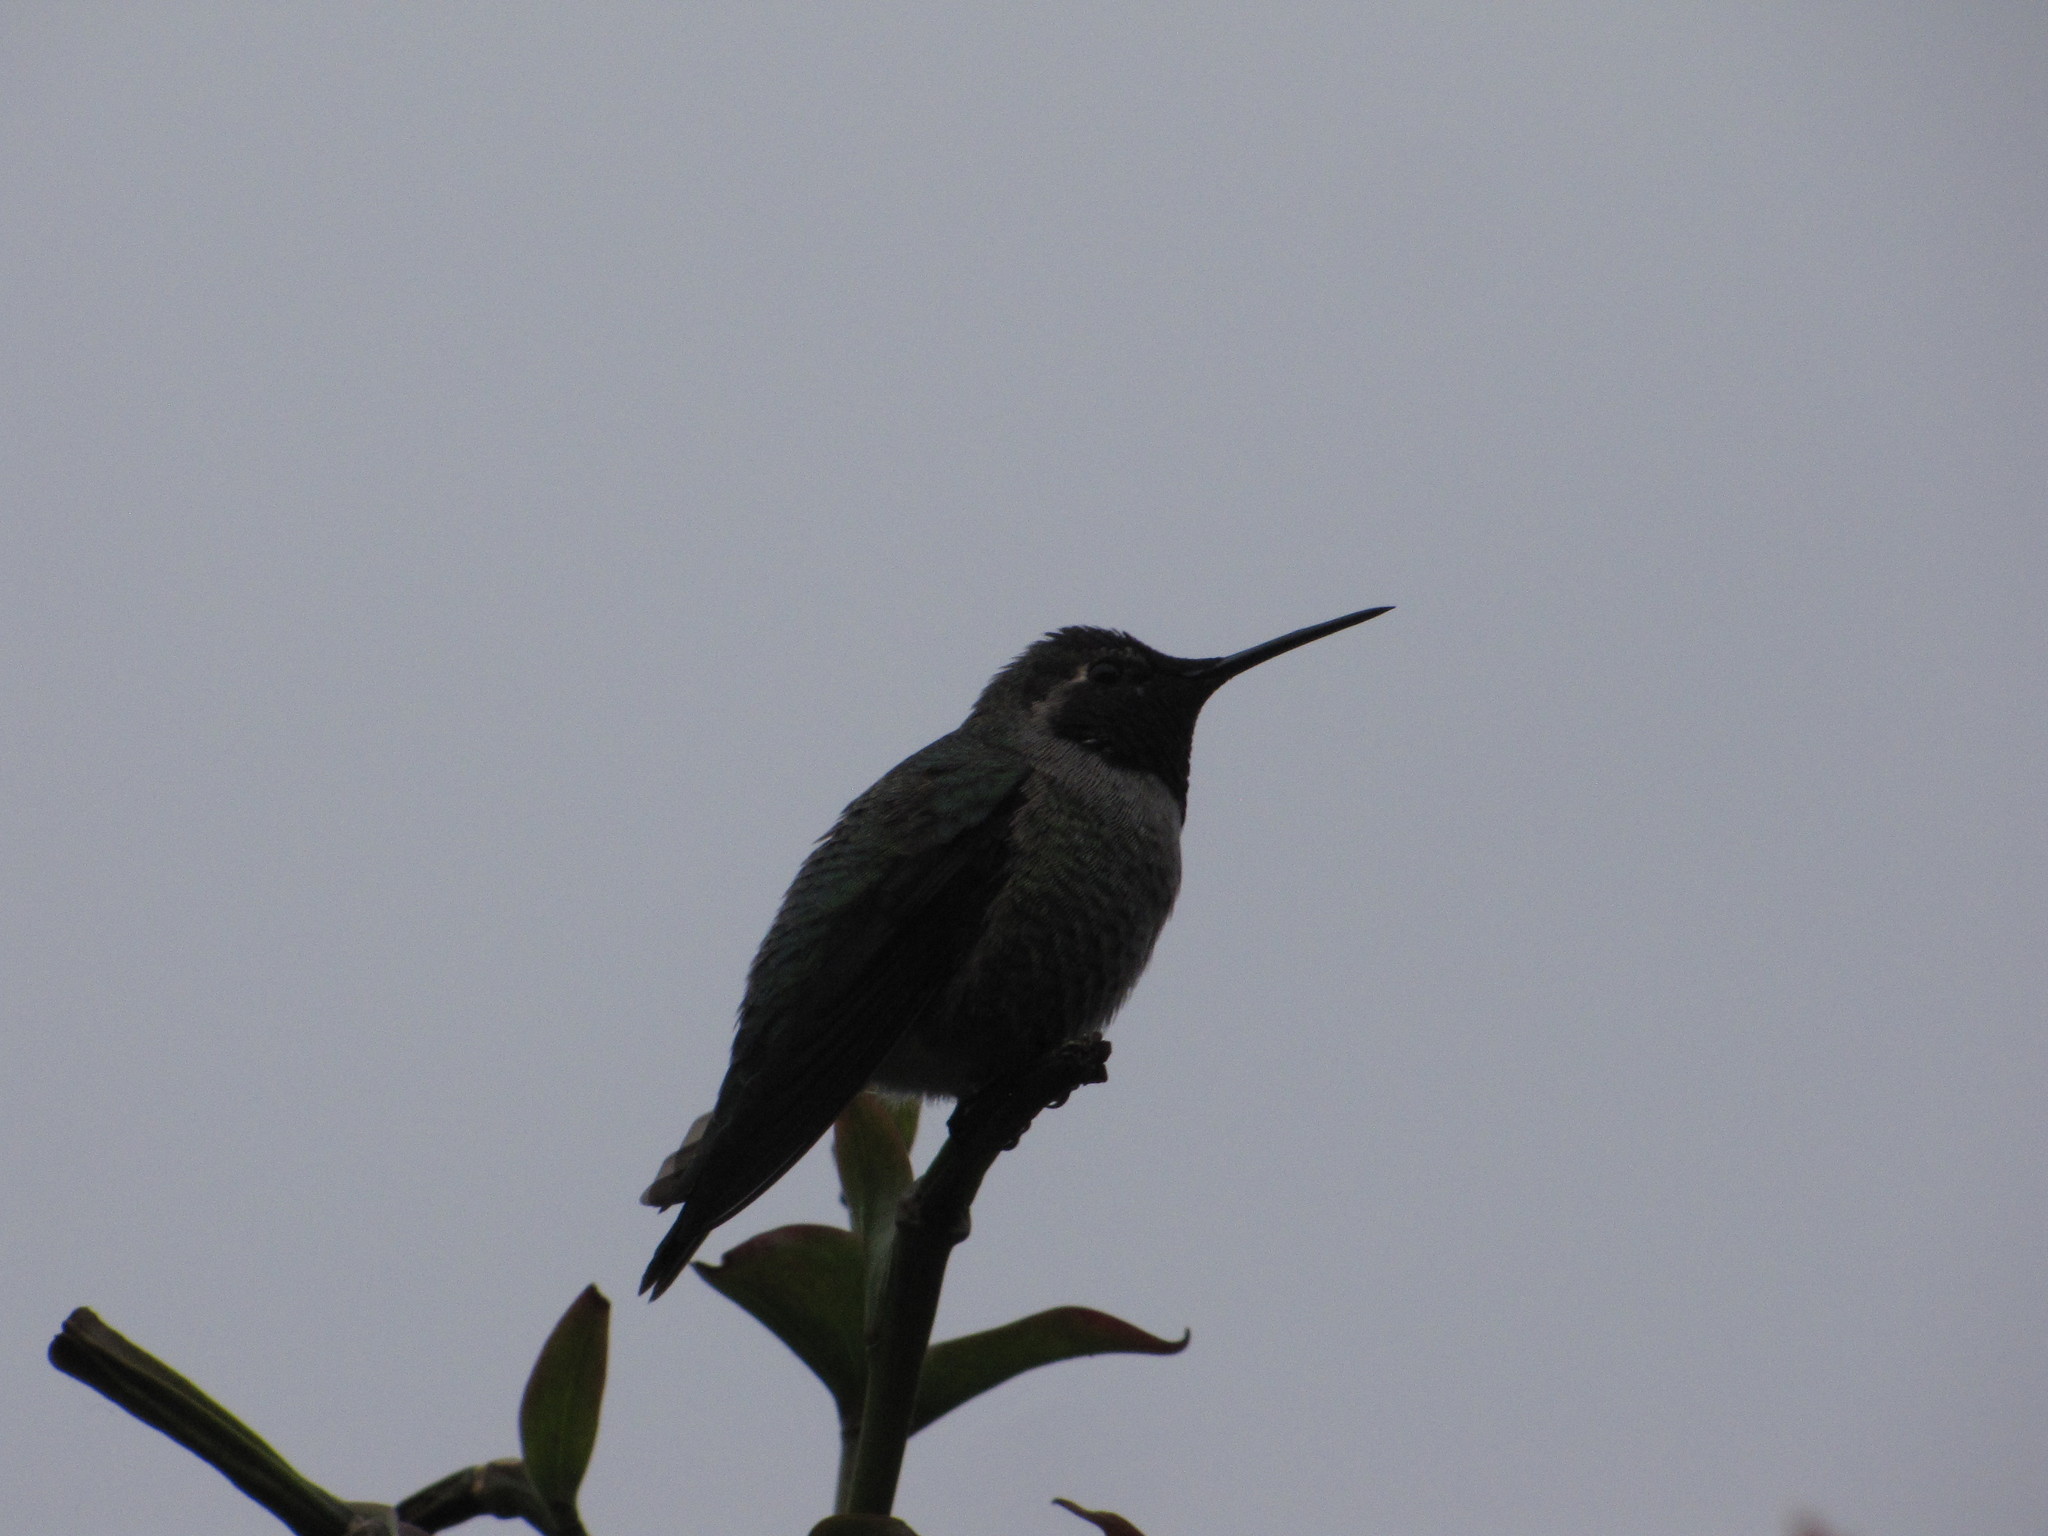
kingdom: Animalia
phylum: Chordata
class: Aves
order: Apodiformes
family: Trochilidae
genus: Calypte
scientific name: Calypte anna
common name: Anna's hummingbird
